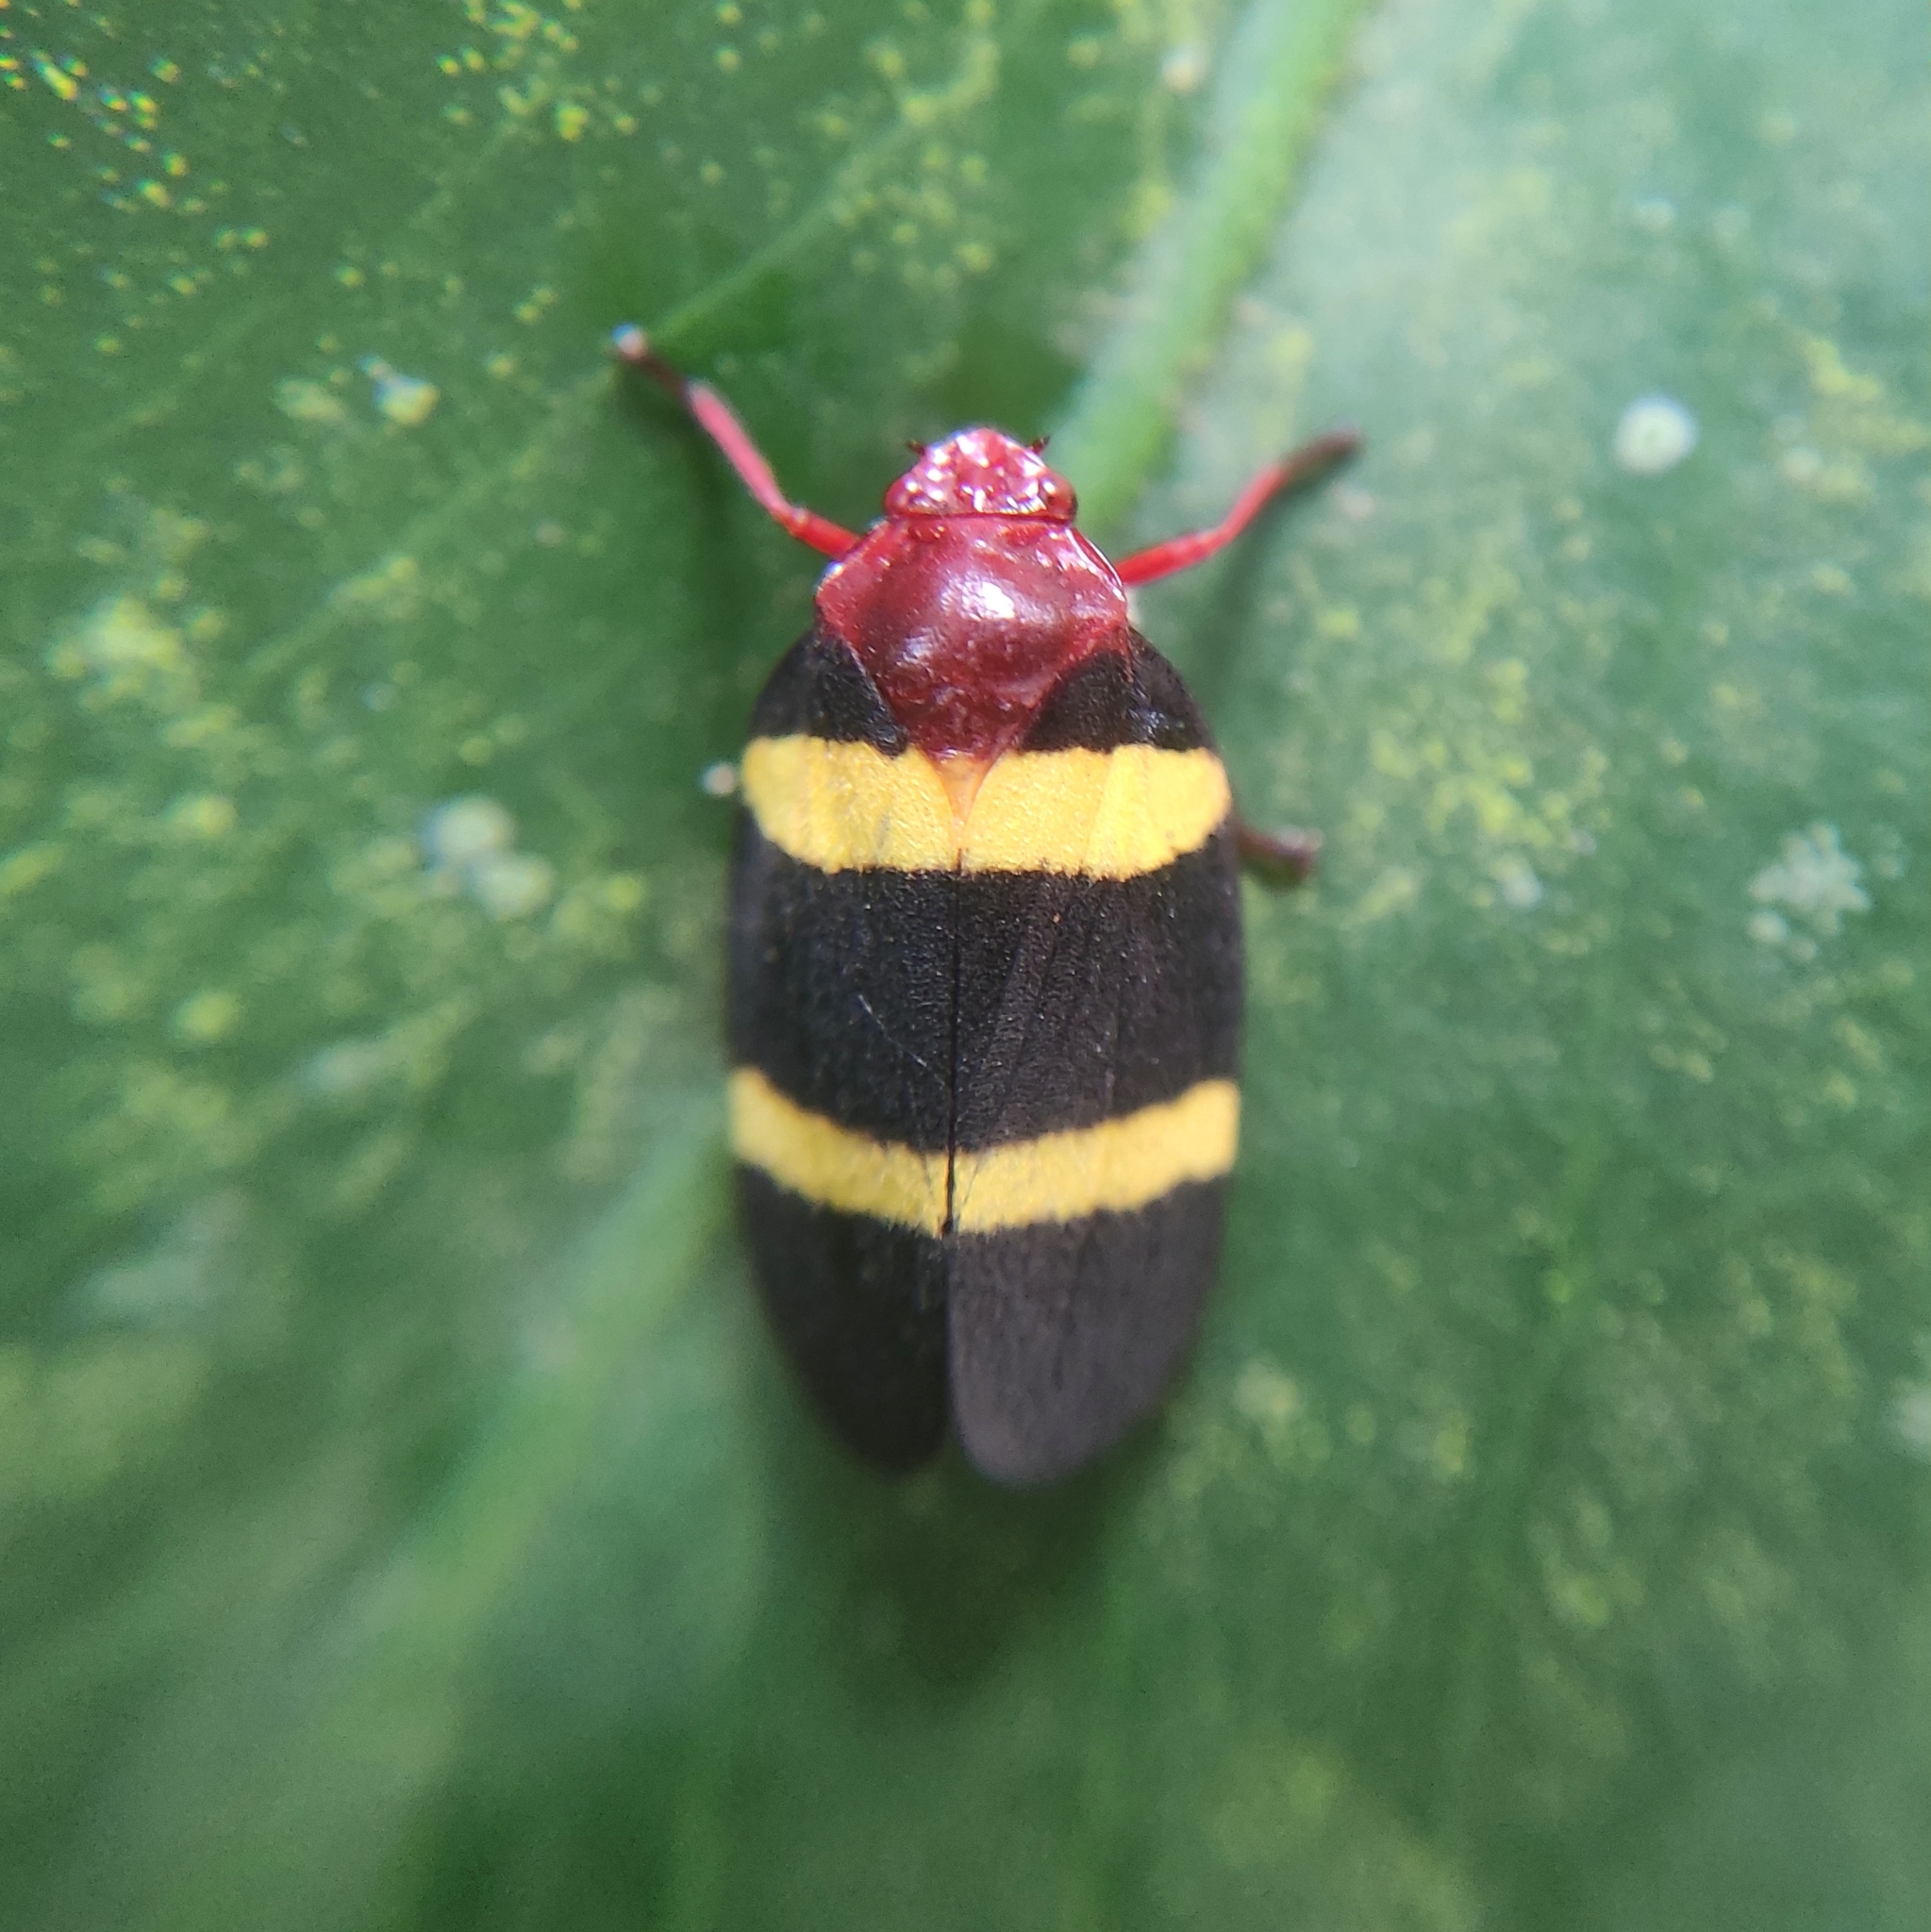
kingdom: Animalia
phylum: Arthropoda
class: Insecta
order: Hemiptera
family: Cercopidae
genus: Sphenorhina
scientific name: Sphenorhina rubra
